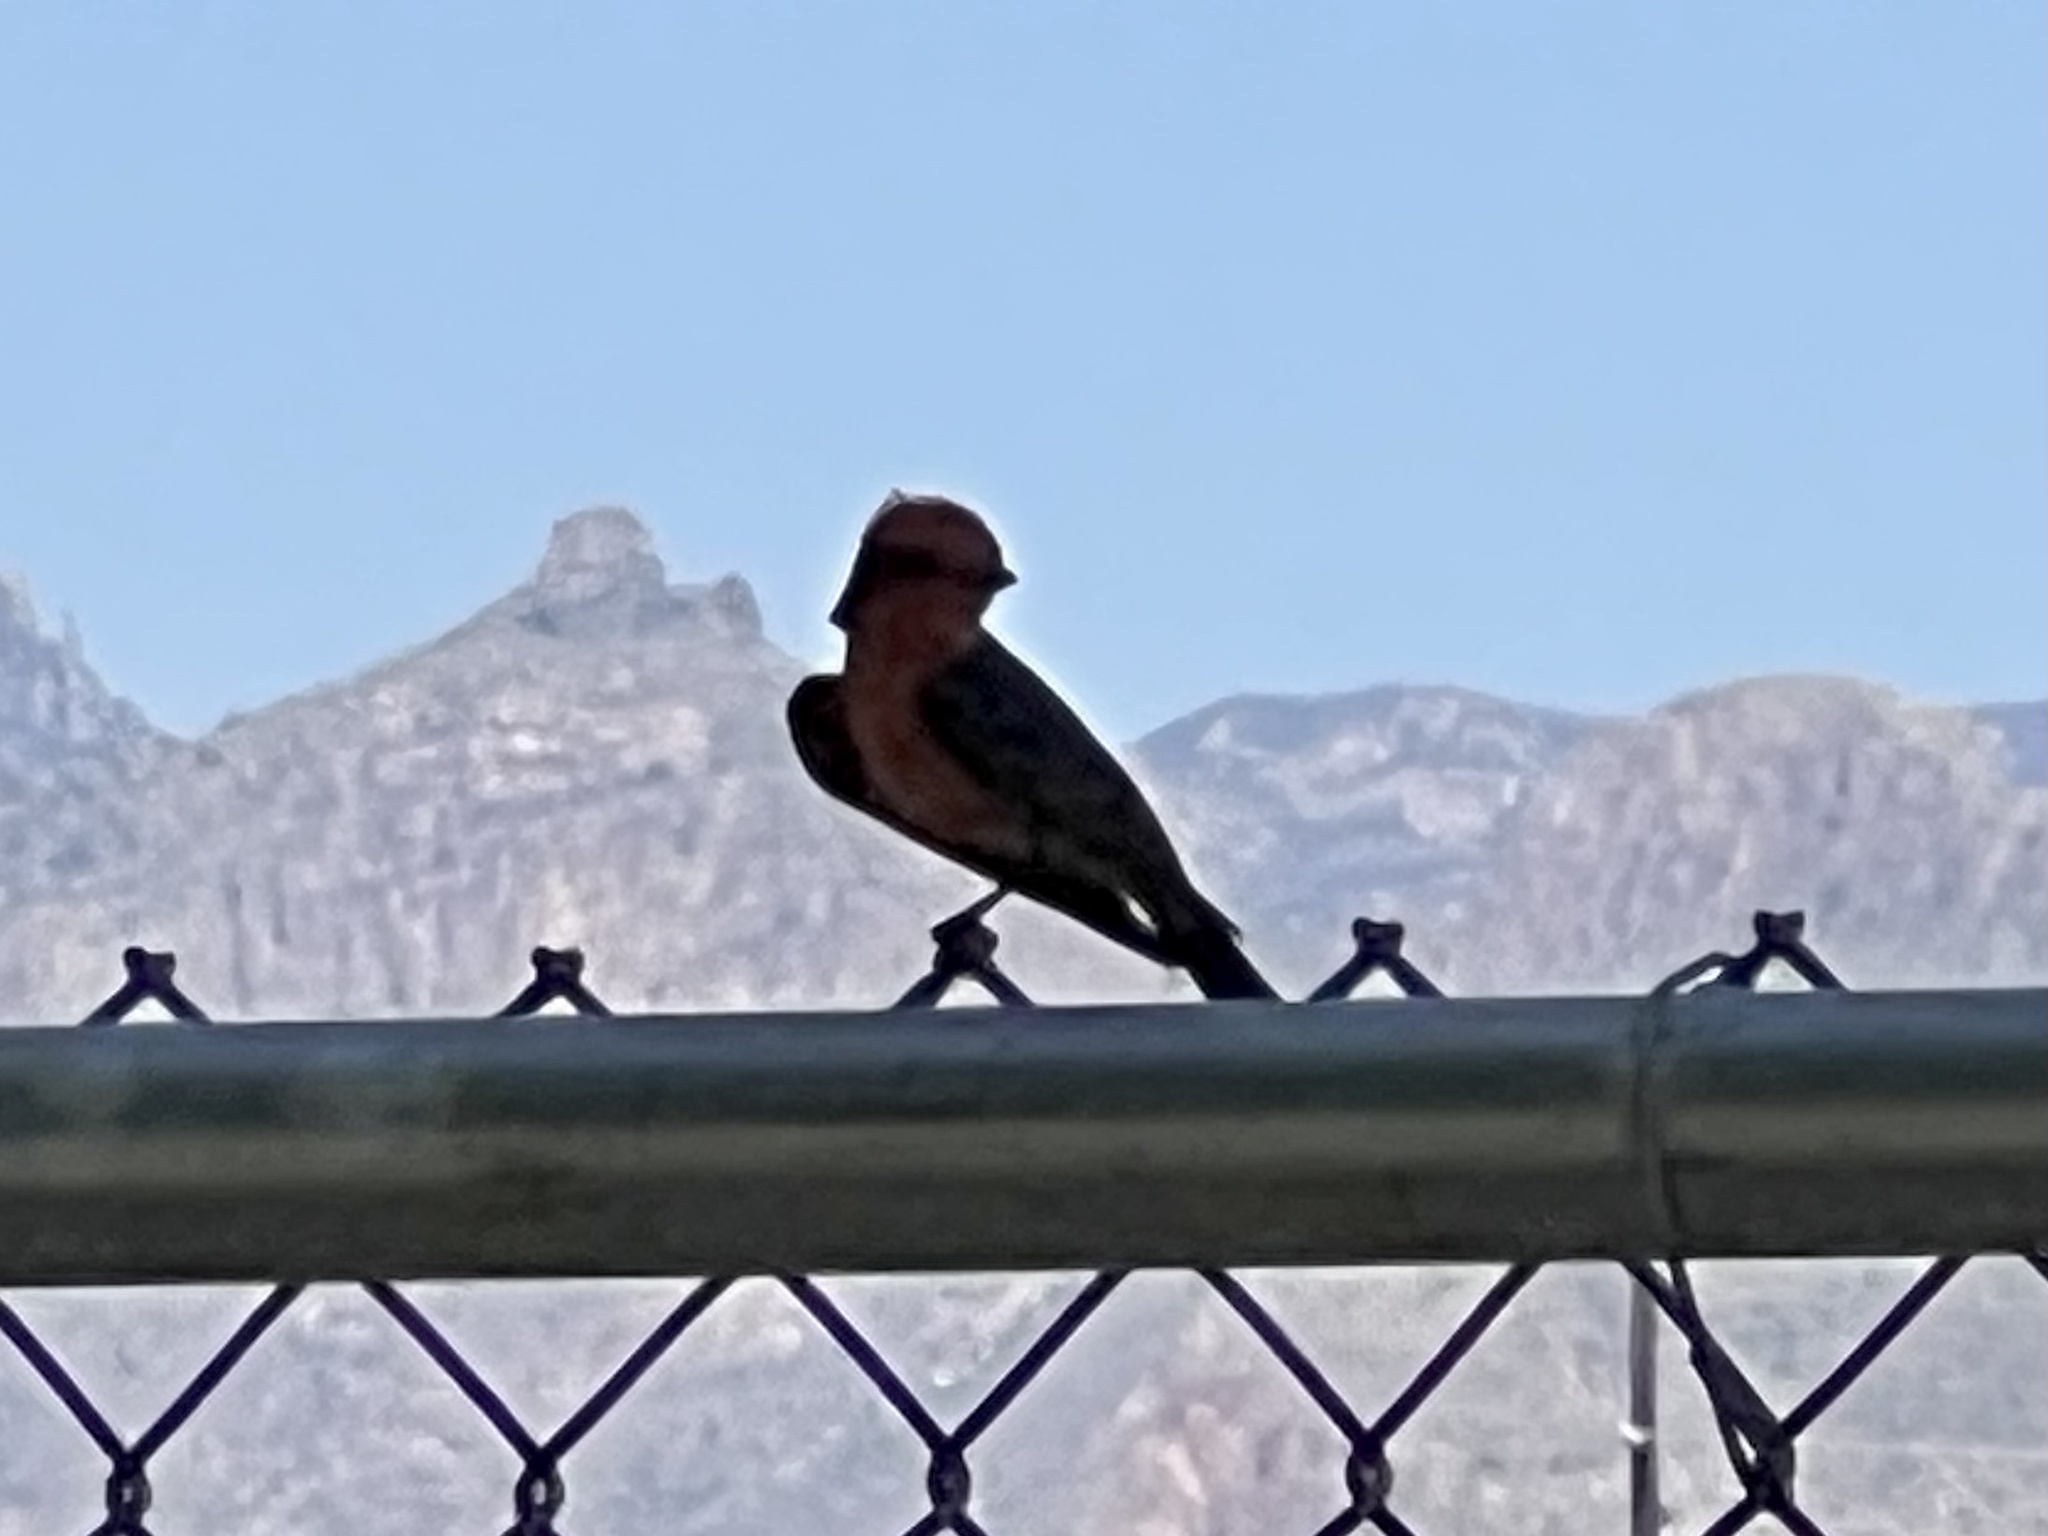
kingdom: Animalia
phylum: Chordata
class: Aves
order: Passeriformes
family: Tyrannidae
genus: Pyrocephalus
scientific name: Pyrocephalus rubinus
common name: Vermilion flycatcher
